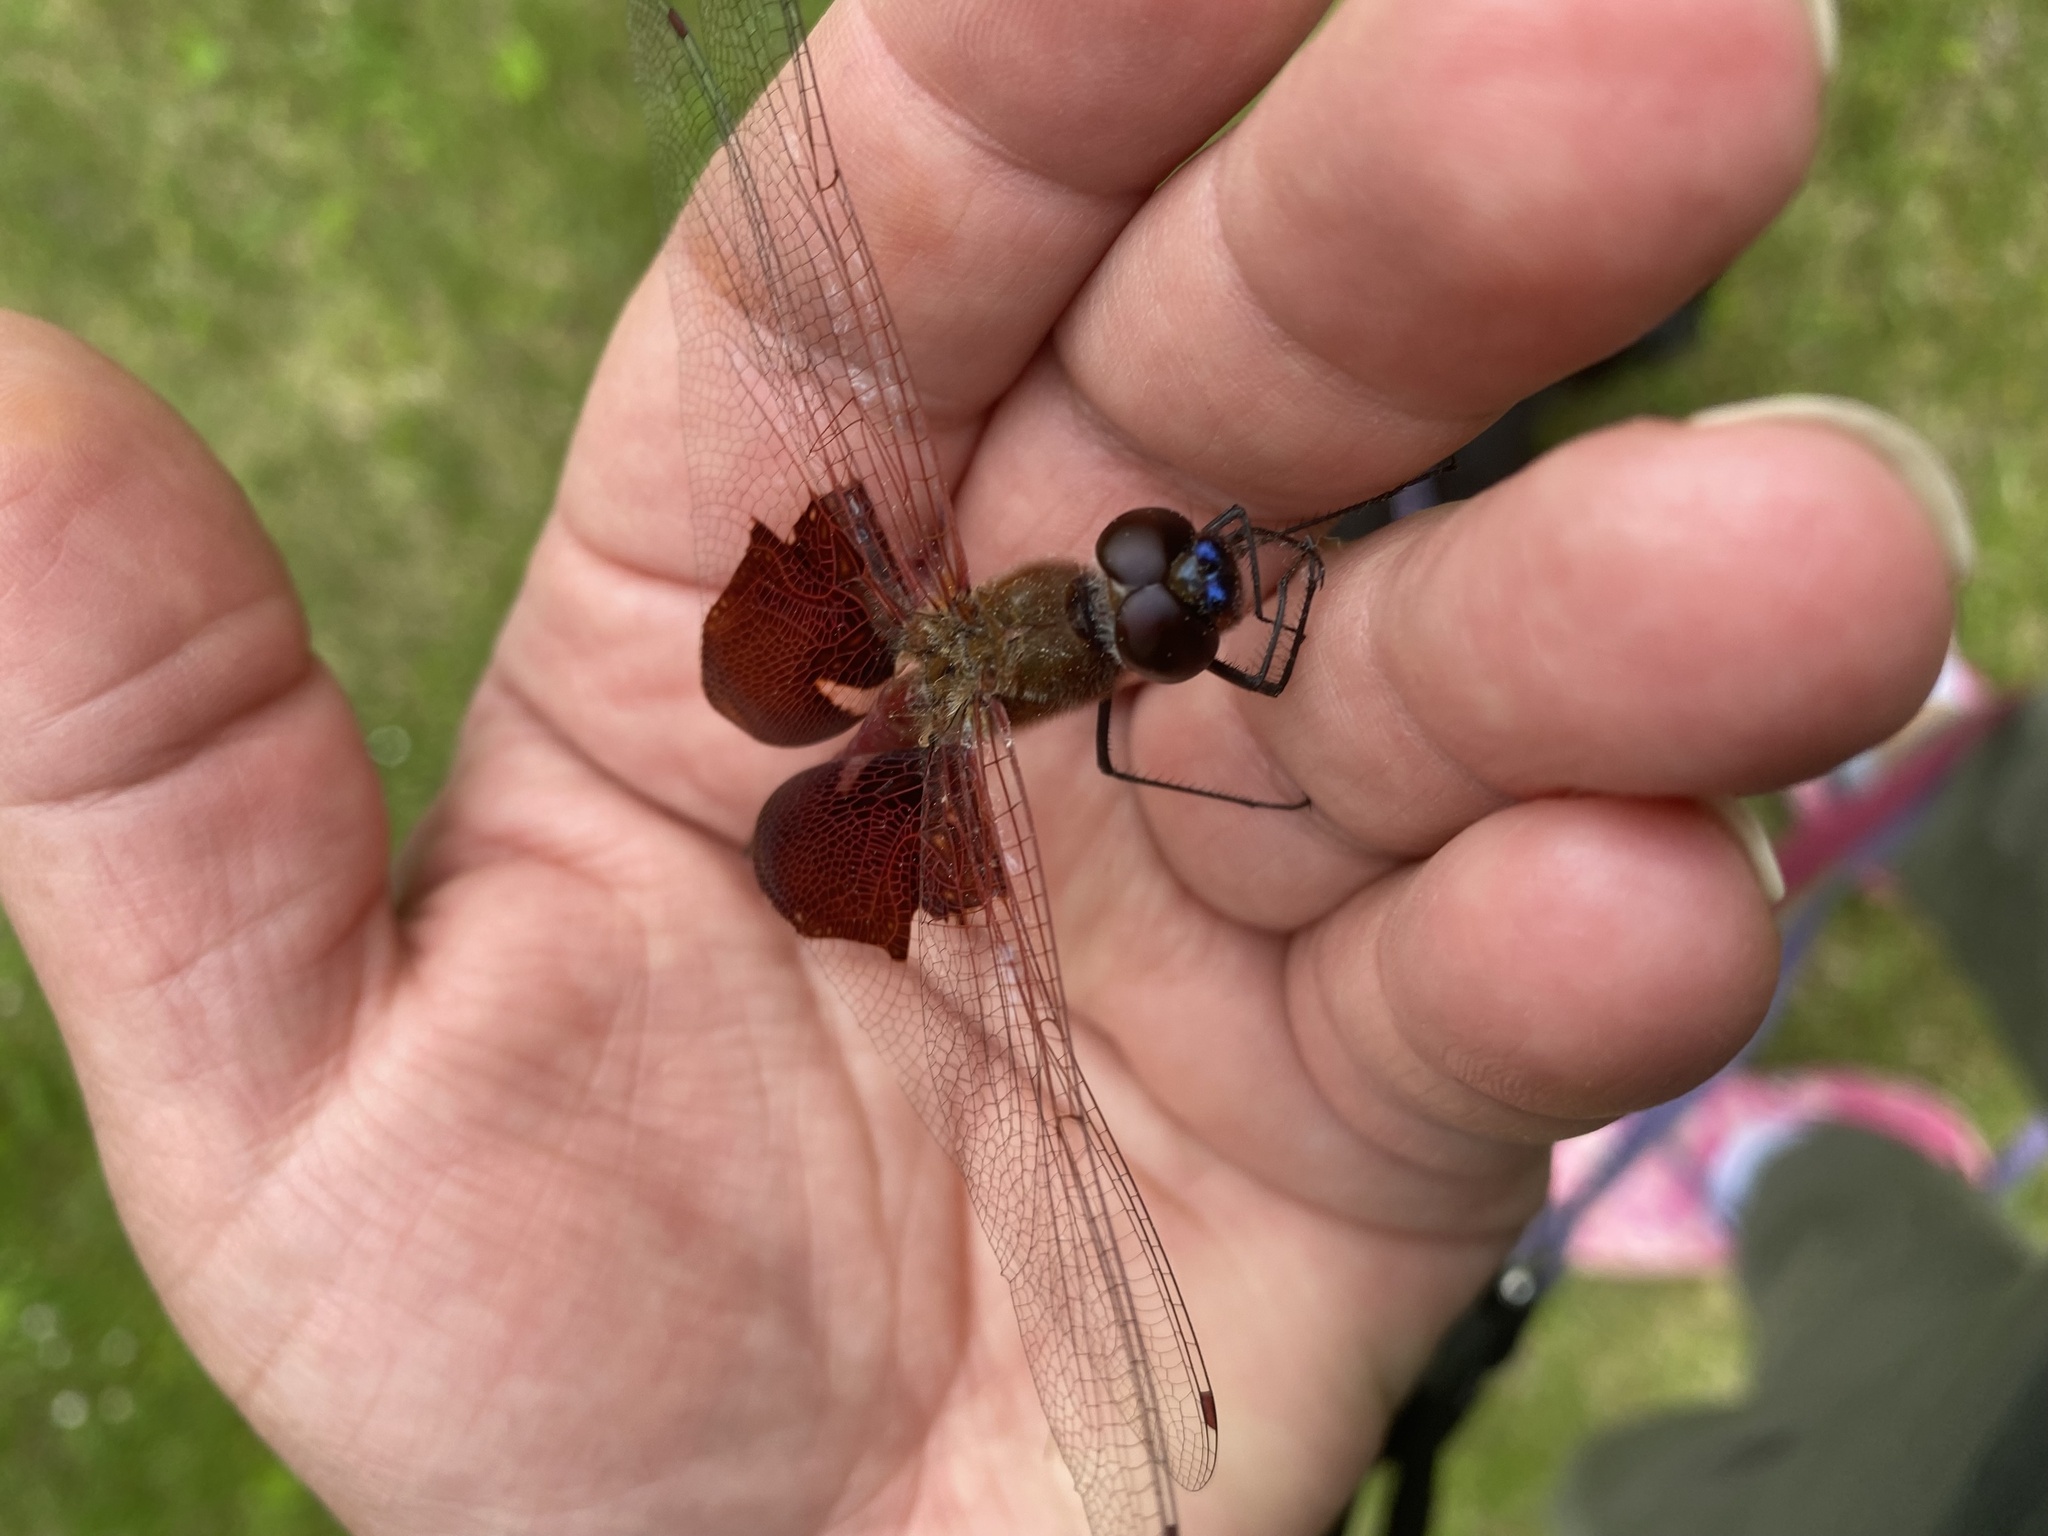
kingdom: Animalia
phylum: Arthropoda
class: Insecta
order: Odonata
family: Libellulidae
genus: Tramea
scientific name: Tramea carolina
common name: Carolina saddlebags
